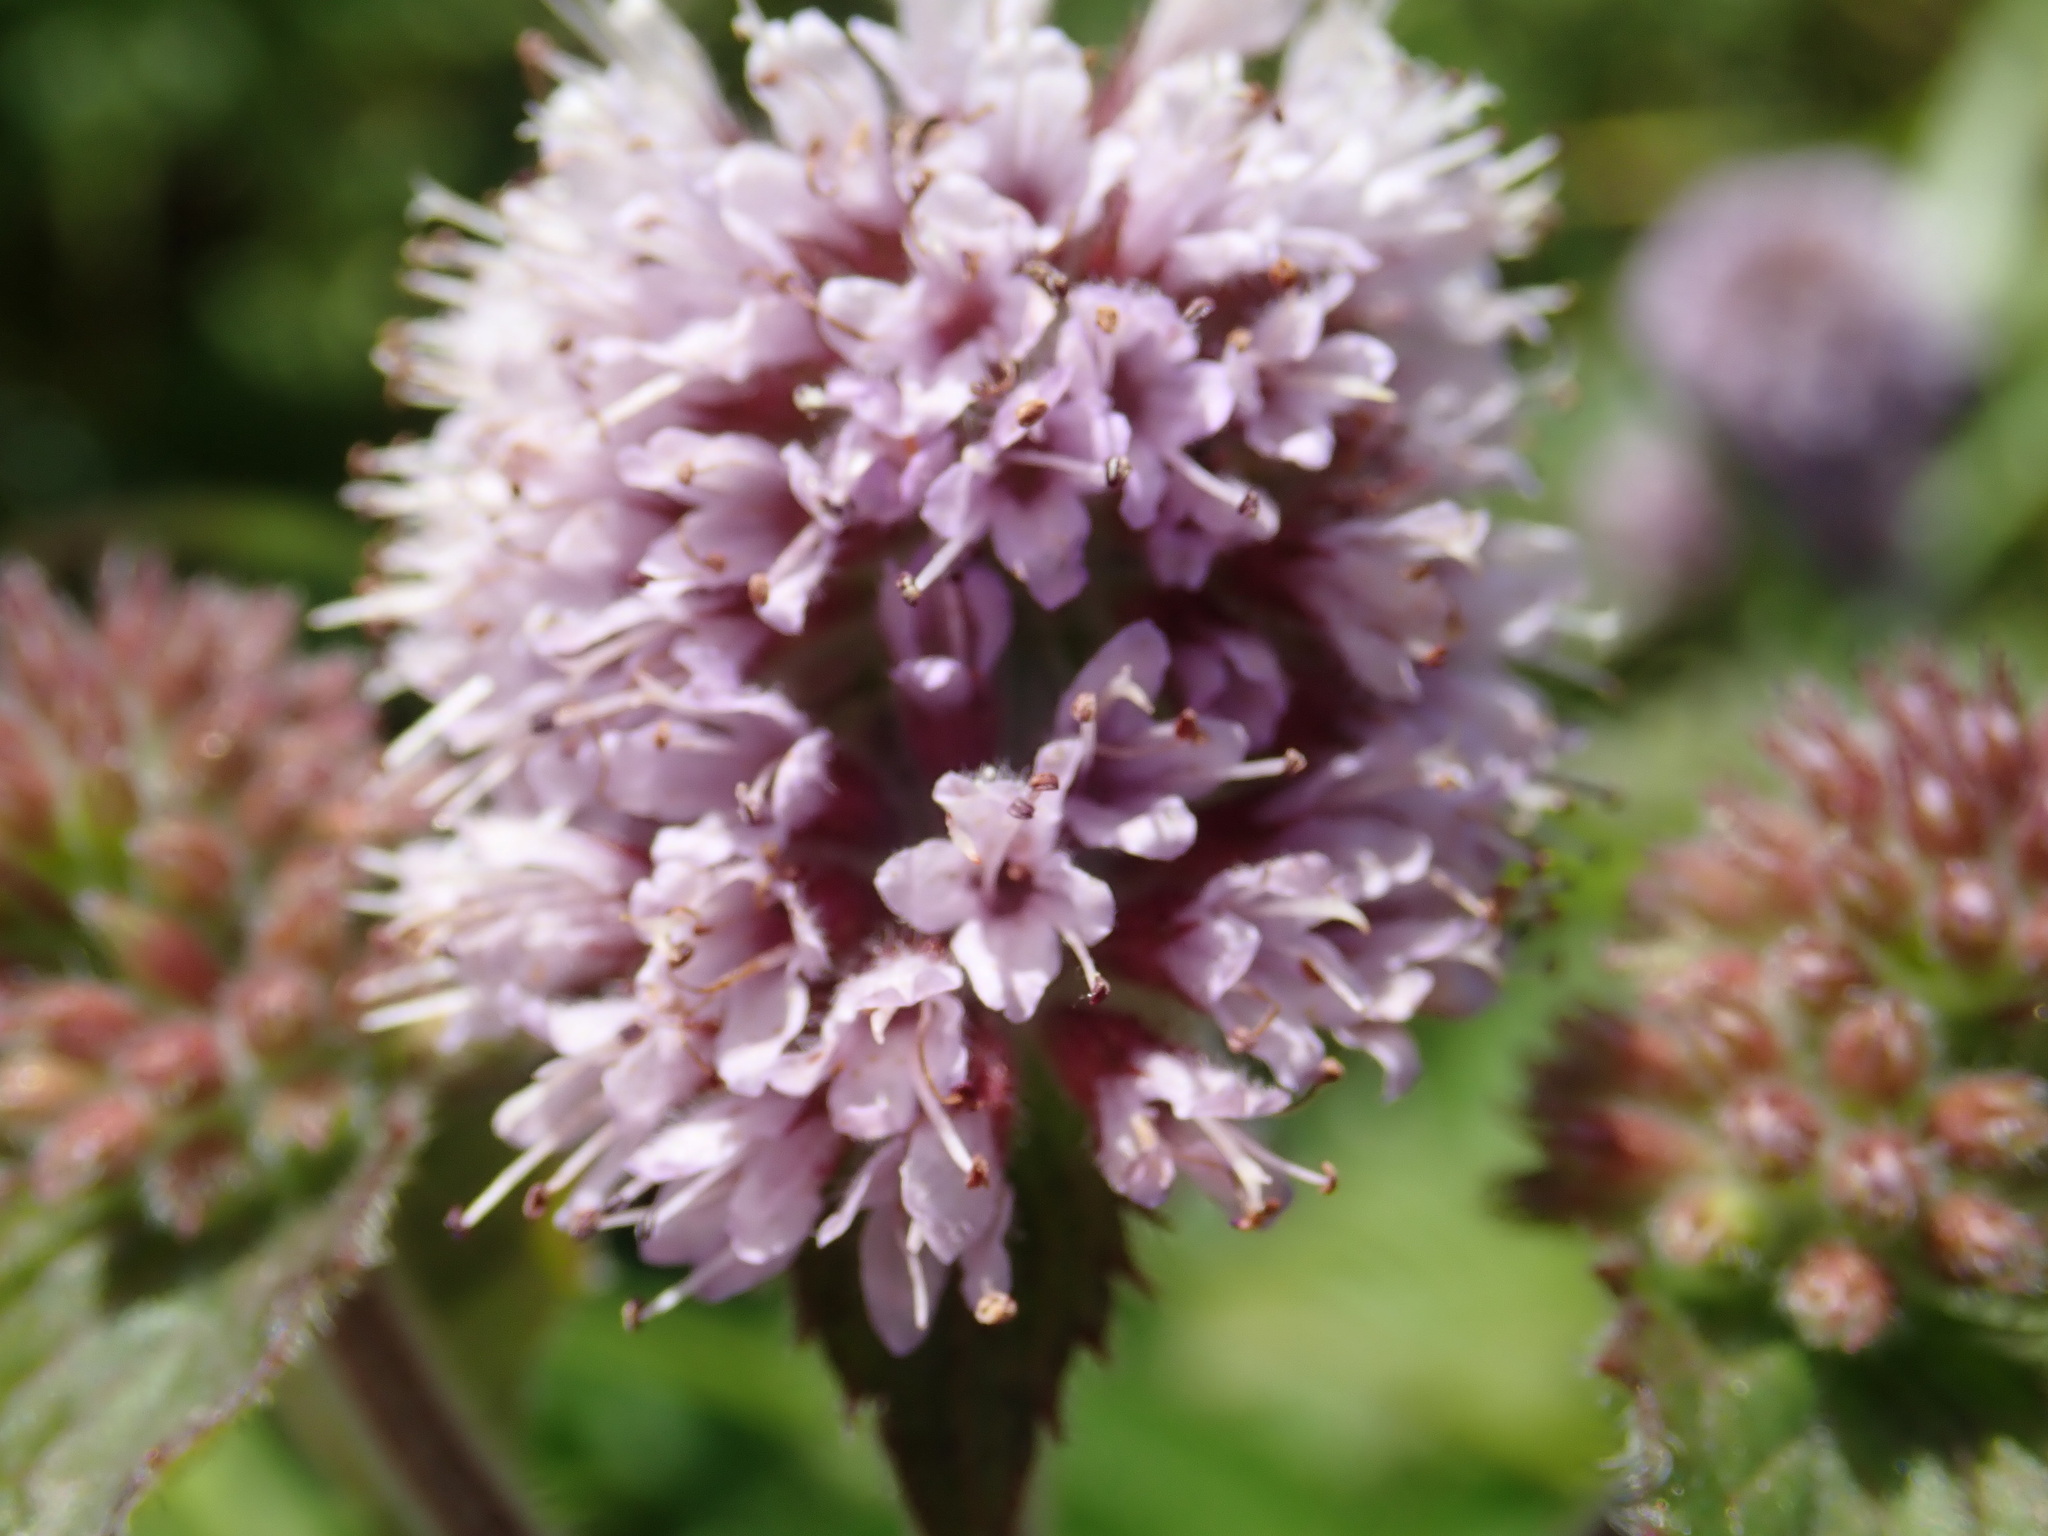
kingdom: Plantae
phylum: Tracheophyta
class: Magnoliopsida
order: Lamiales
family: Lamiaceae
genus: Mentha
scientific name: Mentha aquatica
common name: Water mint
